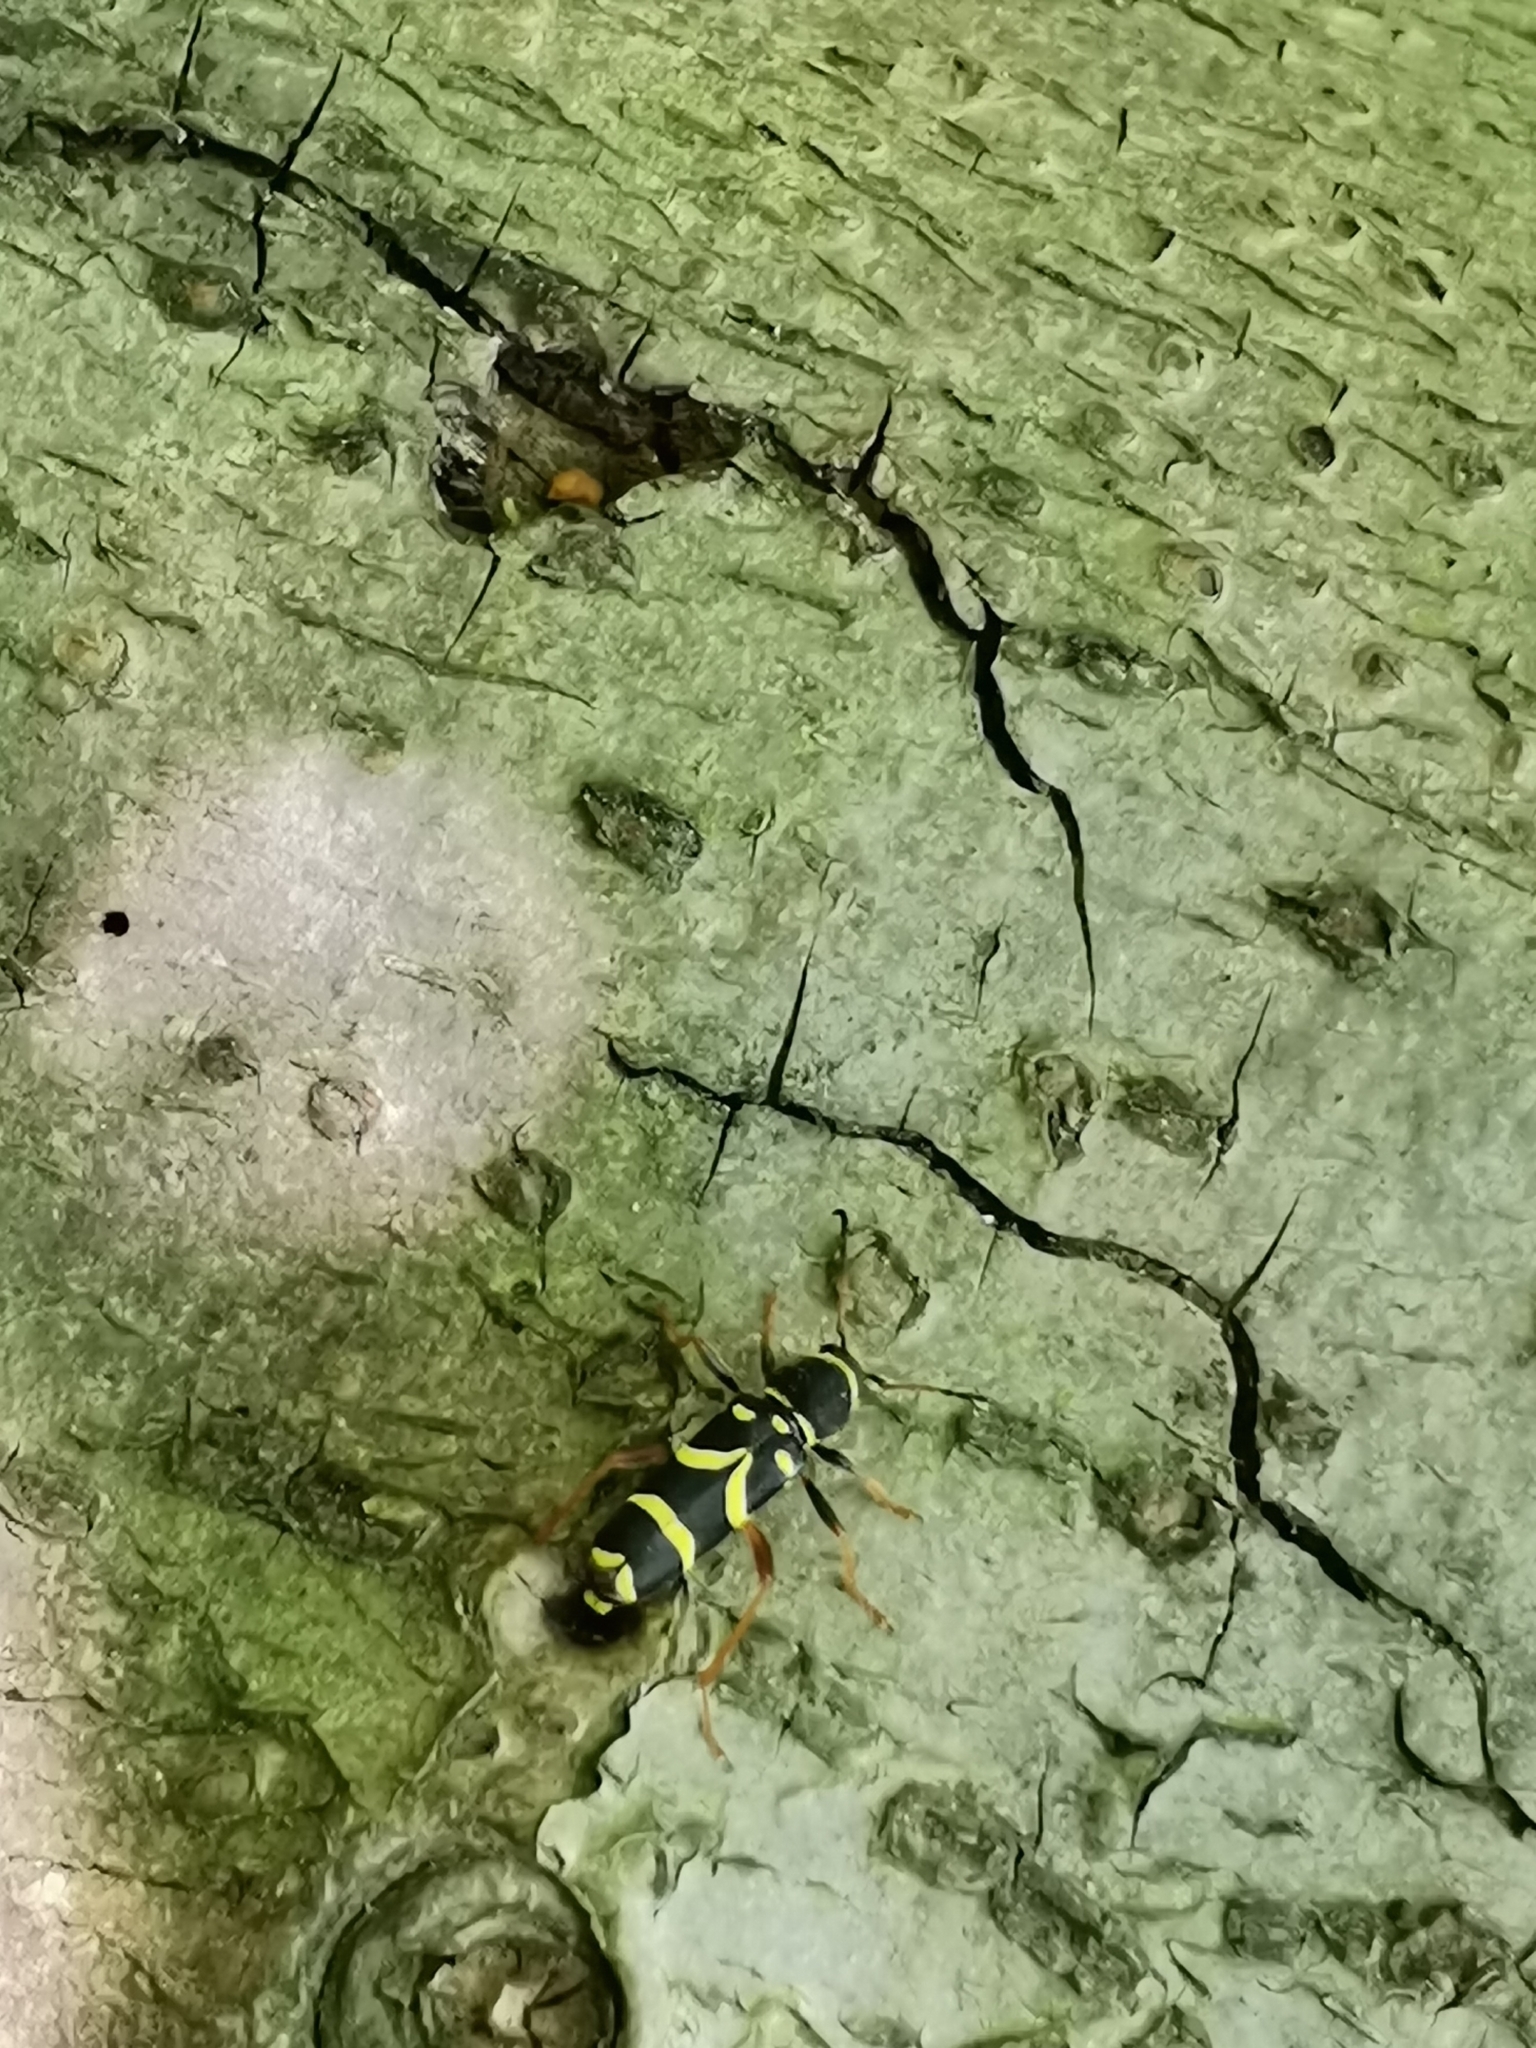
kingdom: Animalia
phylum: Arthropoda
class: Insecta
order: Coleoptera
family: Cerambycidae
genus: Clytus
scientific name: Clytus arietis
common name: Wasp beetle
